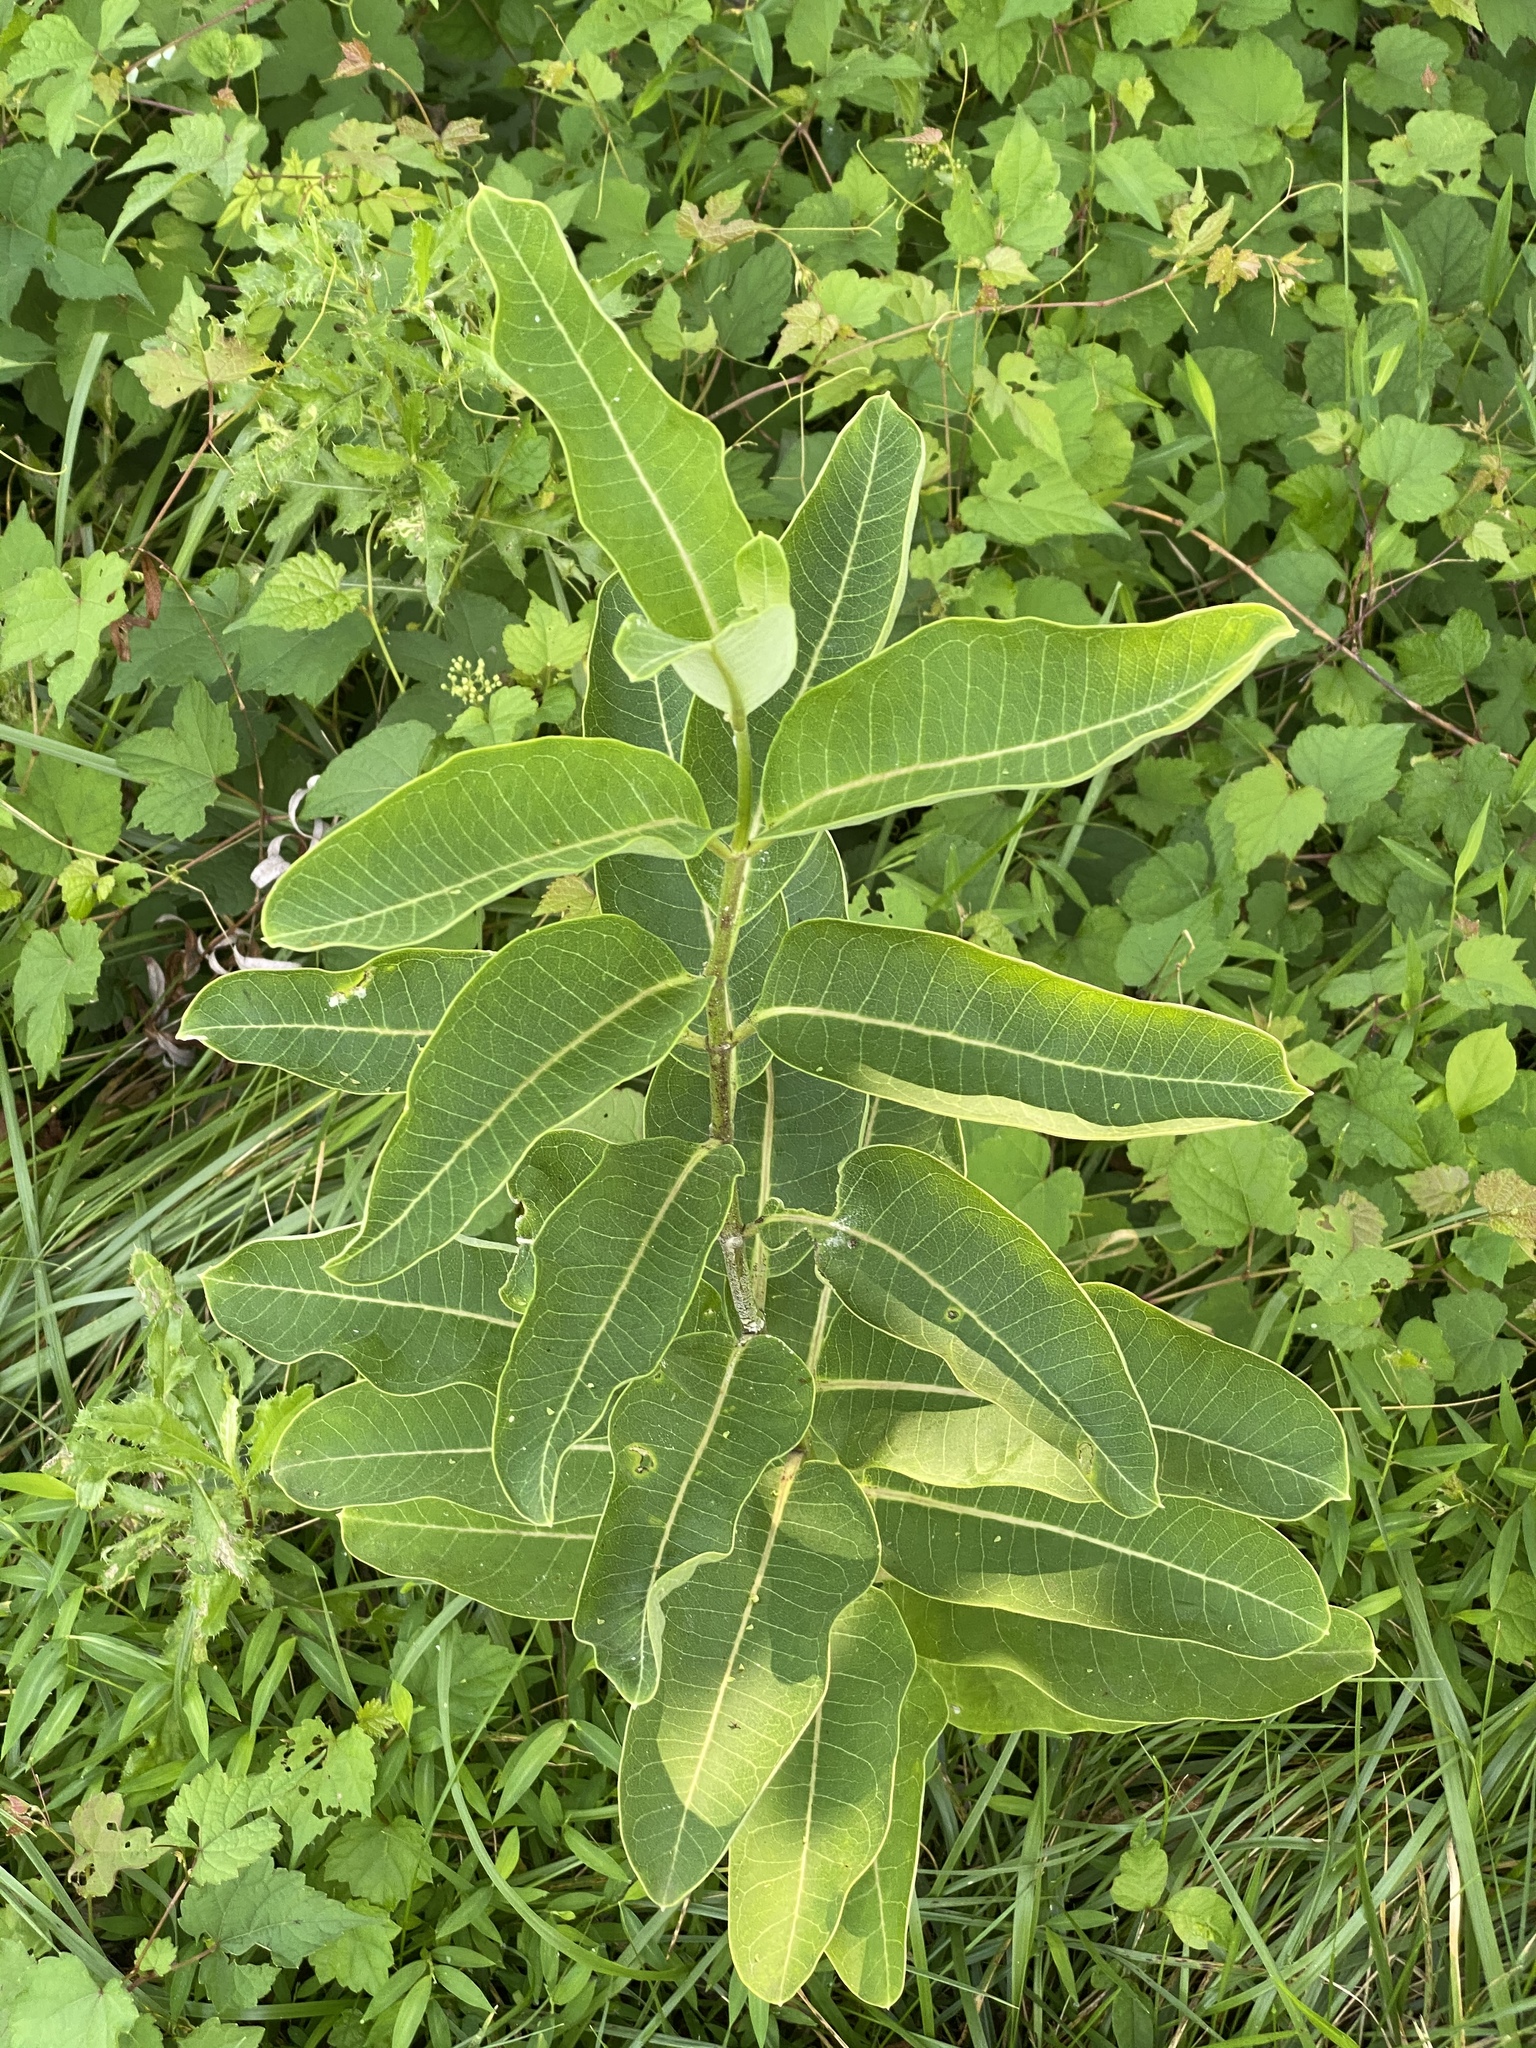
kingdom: Plantae
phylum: Tracheophyta
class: Magnoliopsida
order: Gentianales
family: Apocynaceae
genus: Asclepias
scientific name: Asclepias syriaca
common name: Common milkweed
